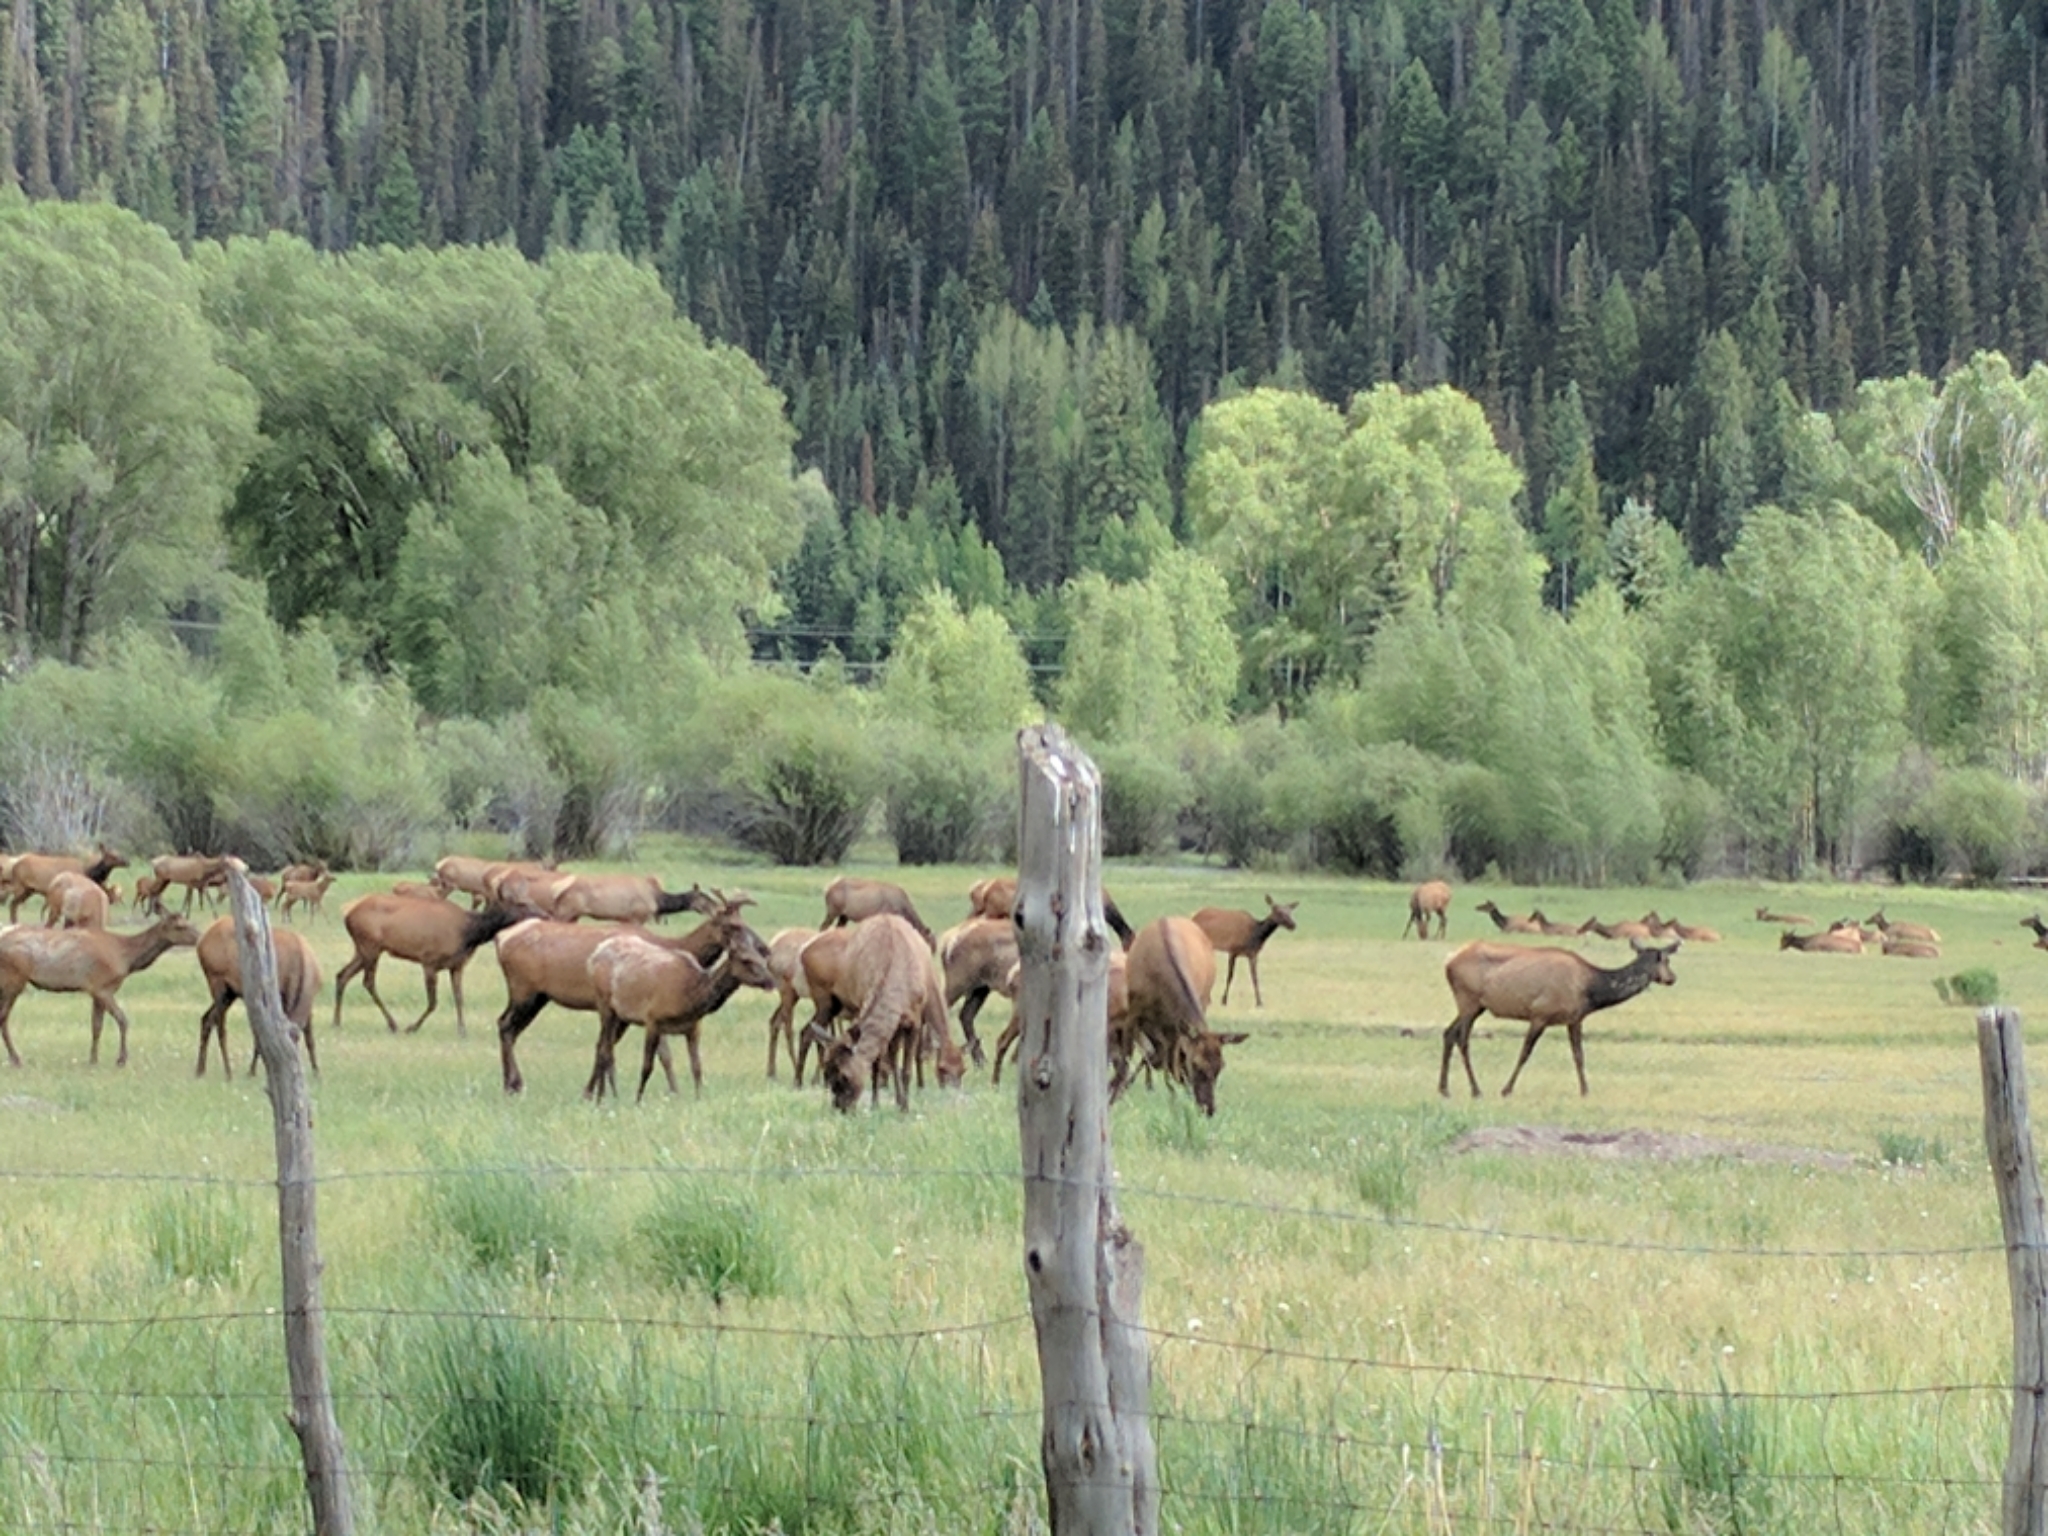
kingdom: Animalia
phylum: Chordata
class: Mammalia
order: Artiodactyla
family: Cervidae
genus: Cervus
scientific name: Cervus elaphus
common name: Red deer
